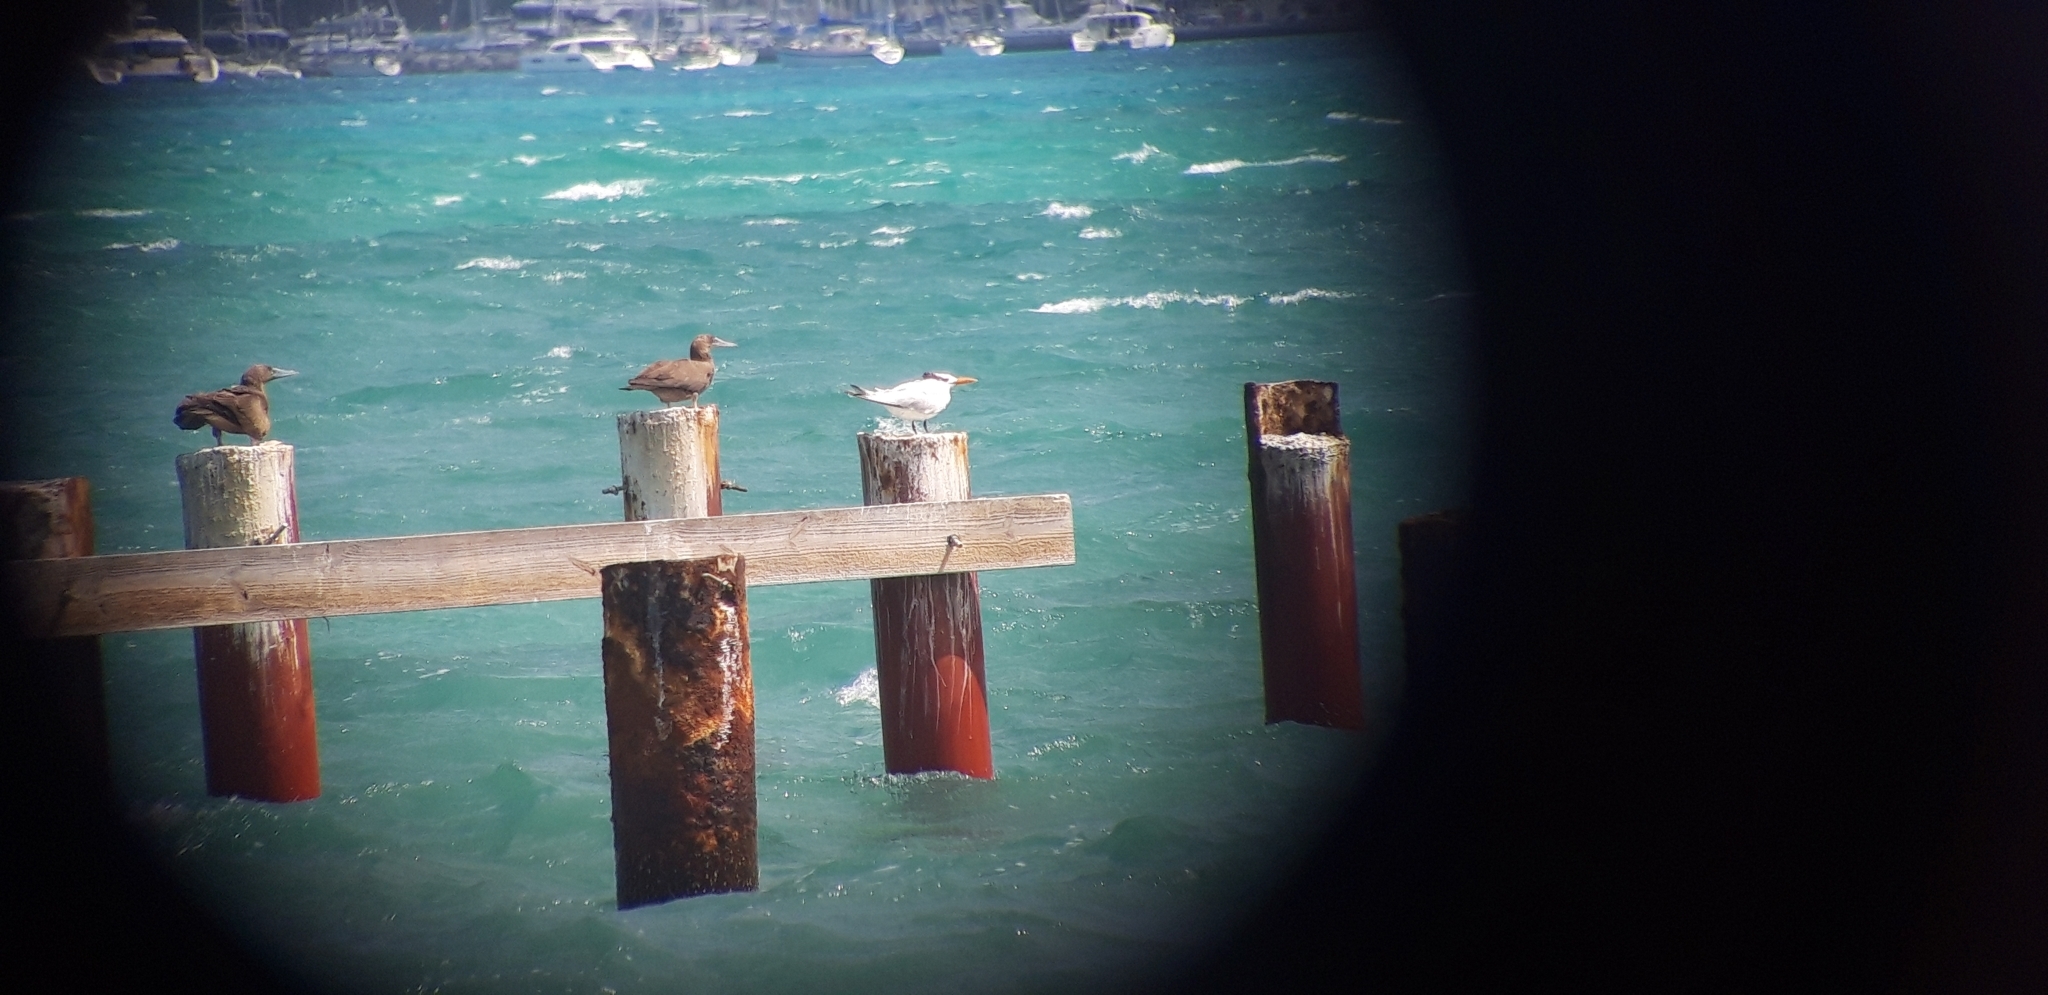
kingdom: Animalia
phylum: Chordata
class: Aves
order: Charadriiformes
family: Laridae
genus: Thalasseus
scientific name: Thalasseus maximus
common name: Royal tern
